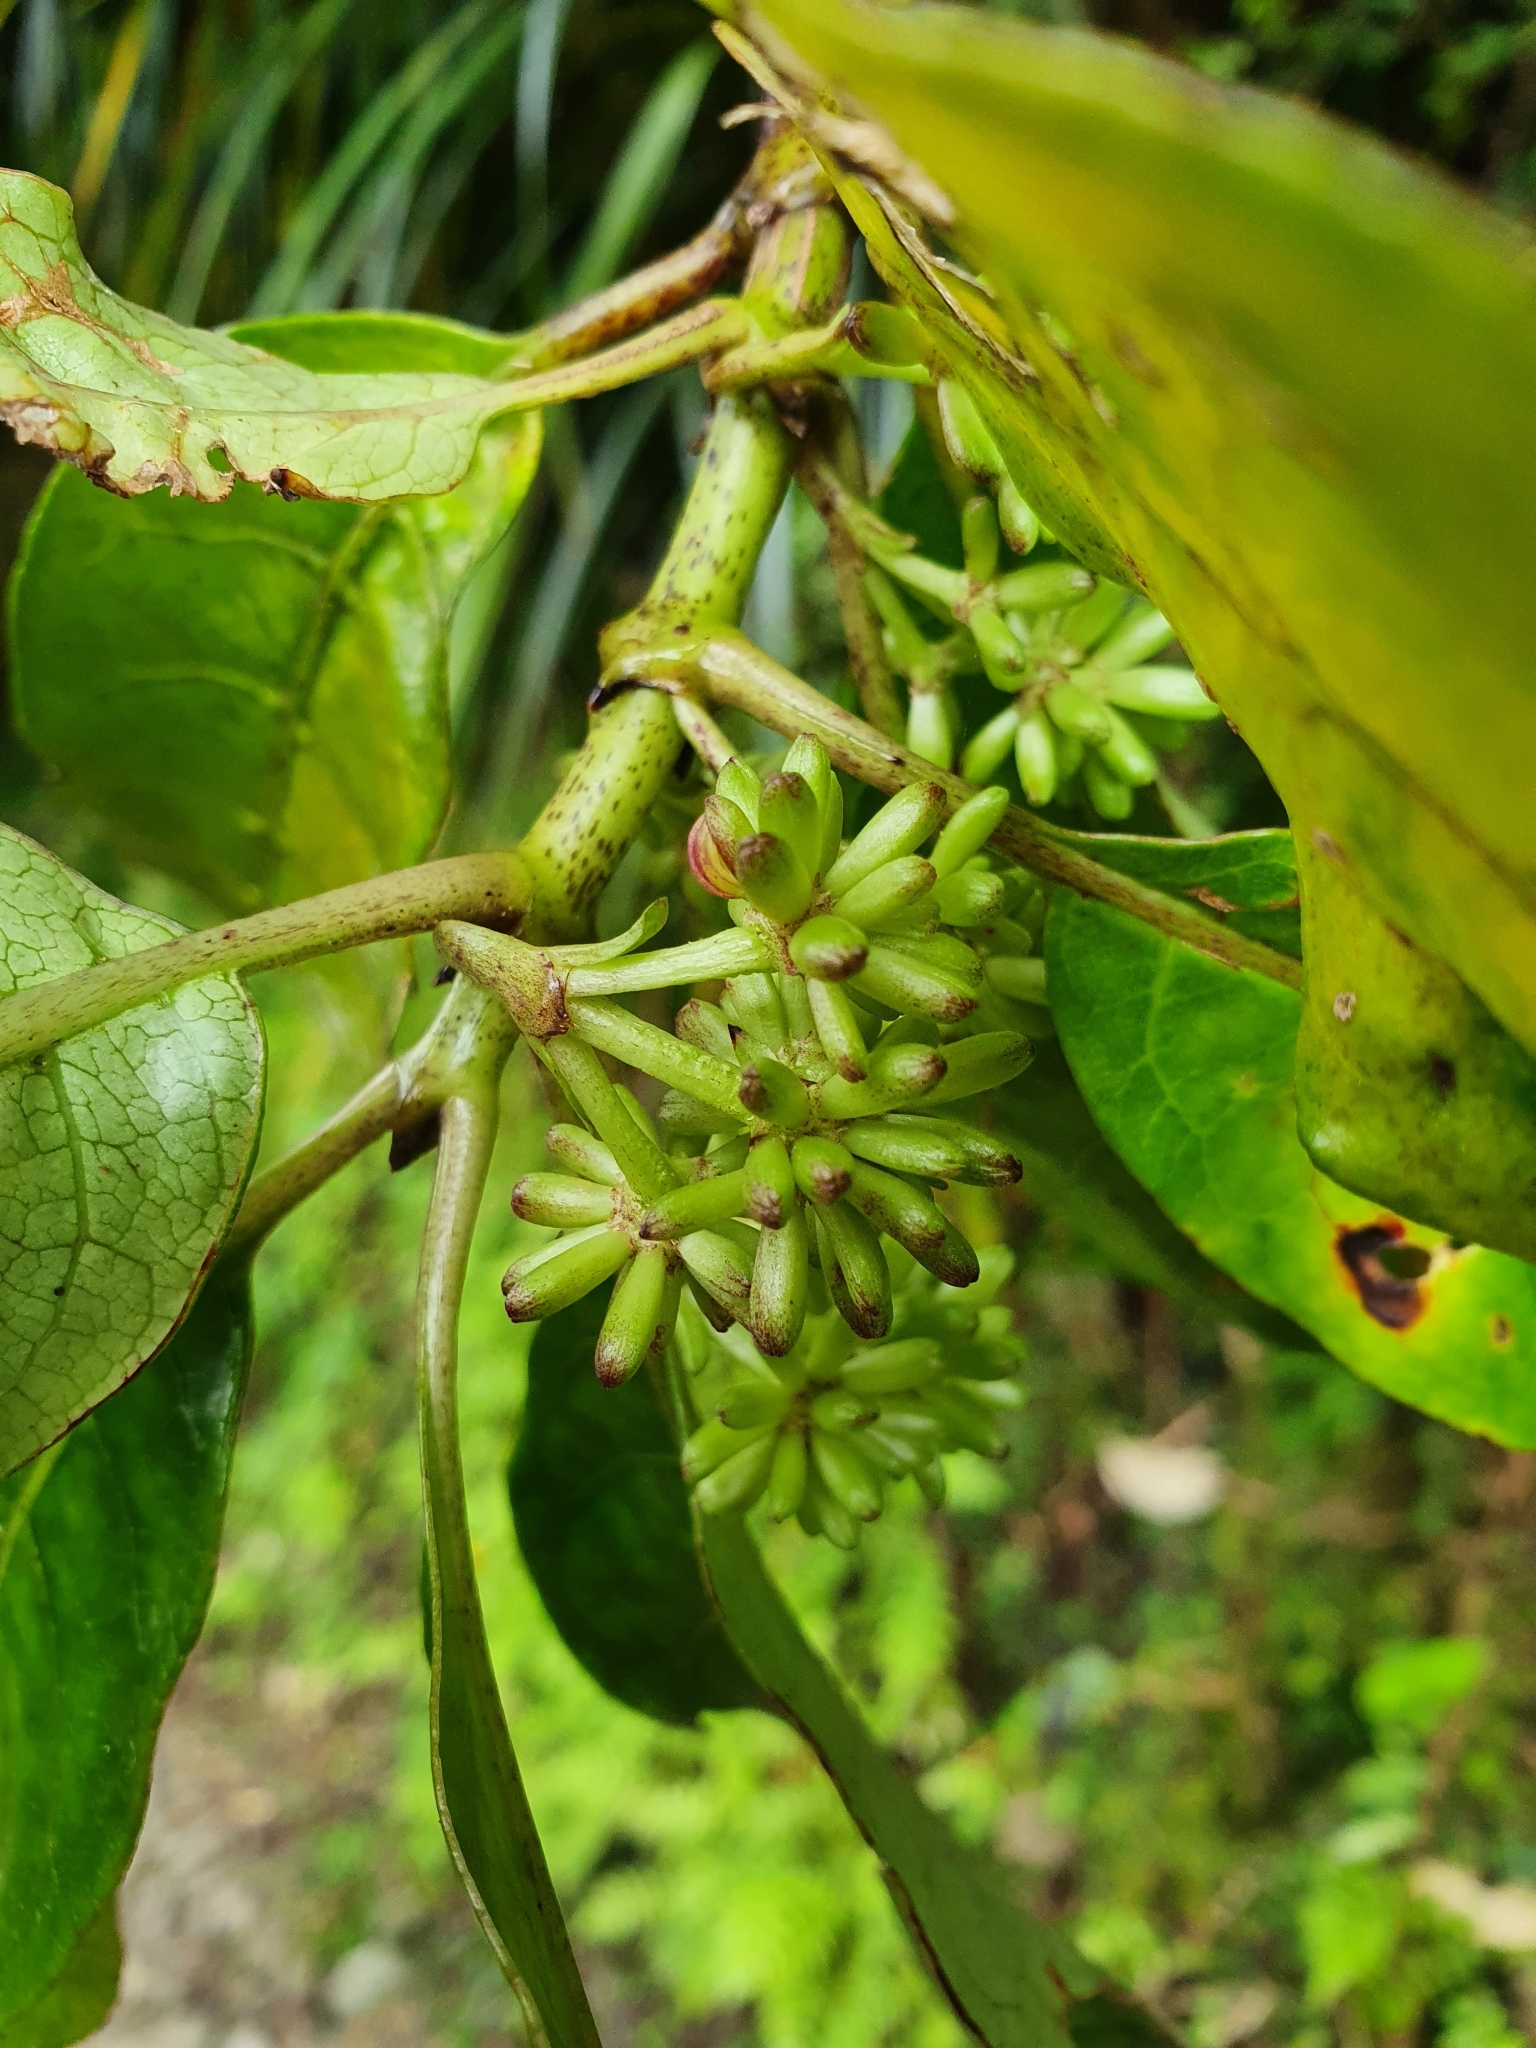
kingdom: Plantae
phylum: Tracheophyta
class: Magnoliopsida
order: Gentianales
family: Rubiaceae
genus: Coprosma
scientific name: Coprosma autumnalis
